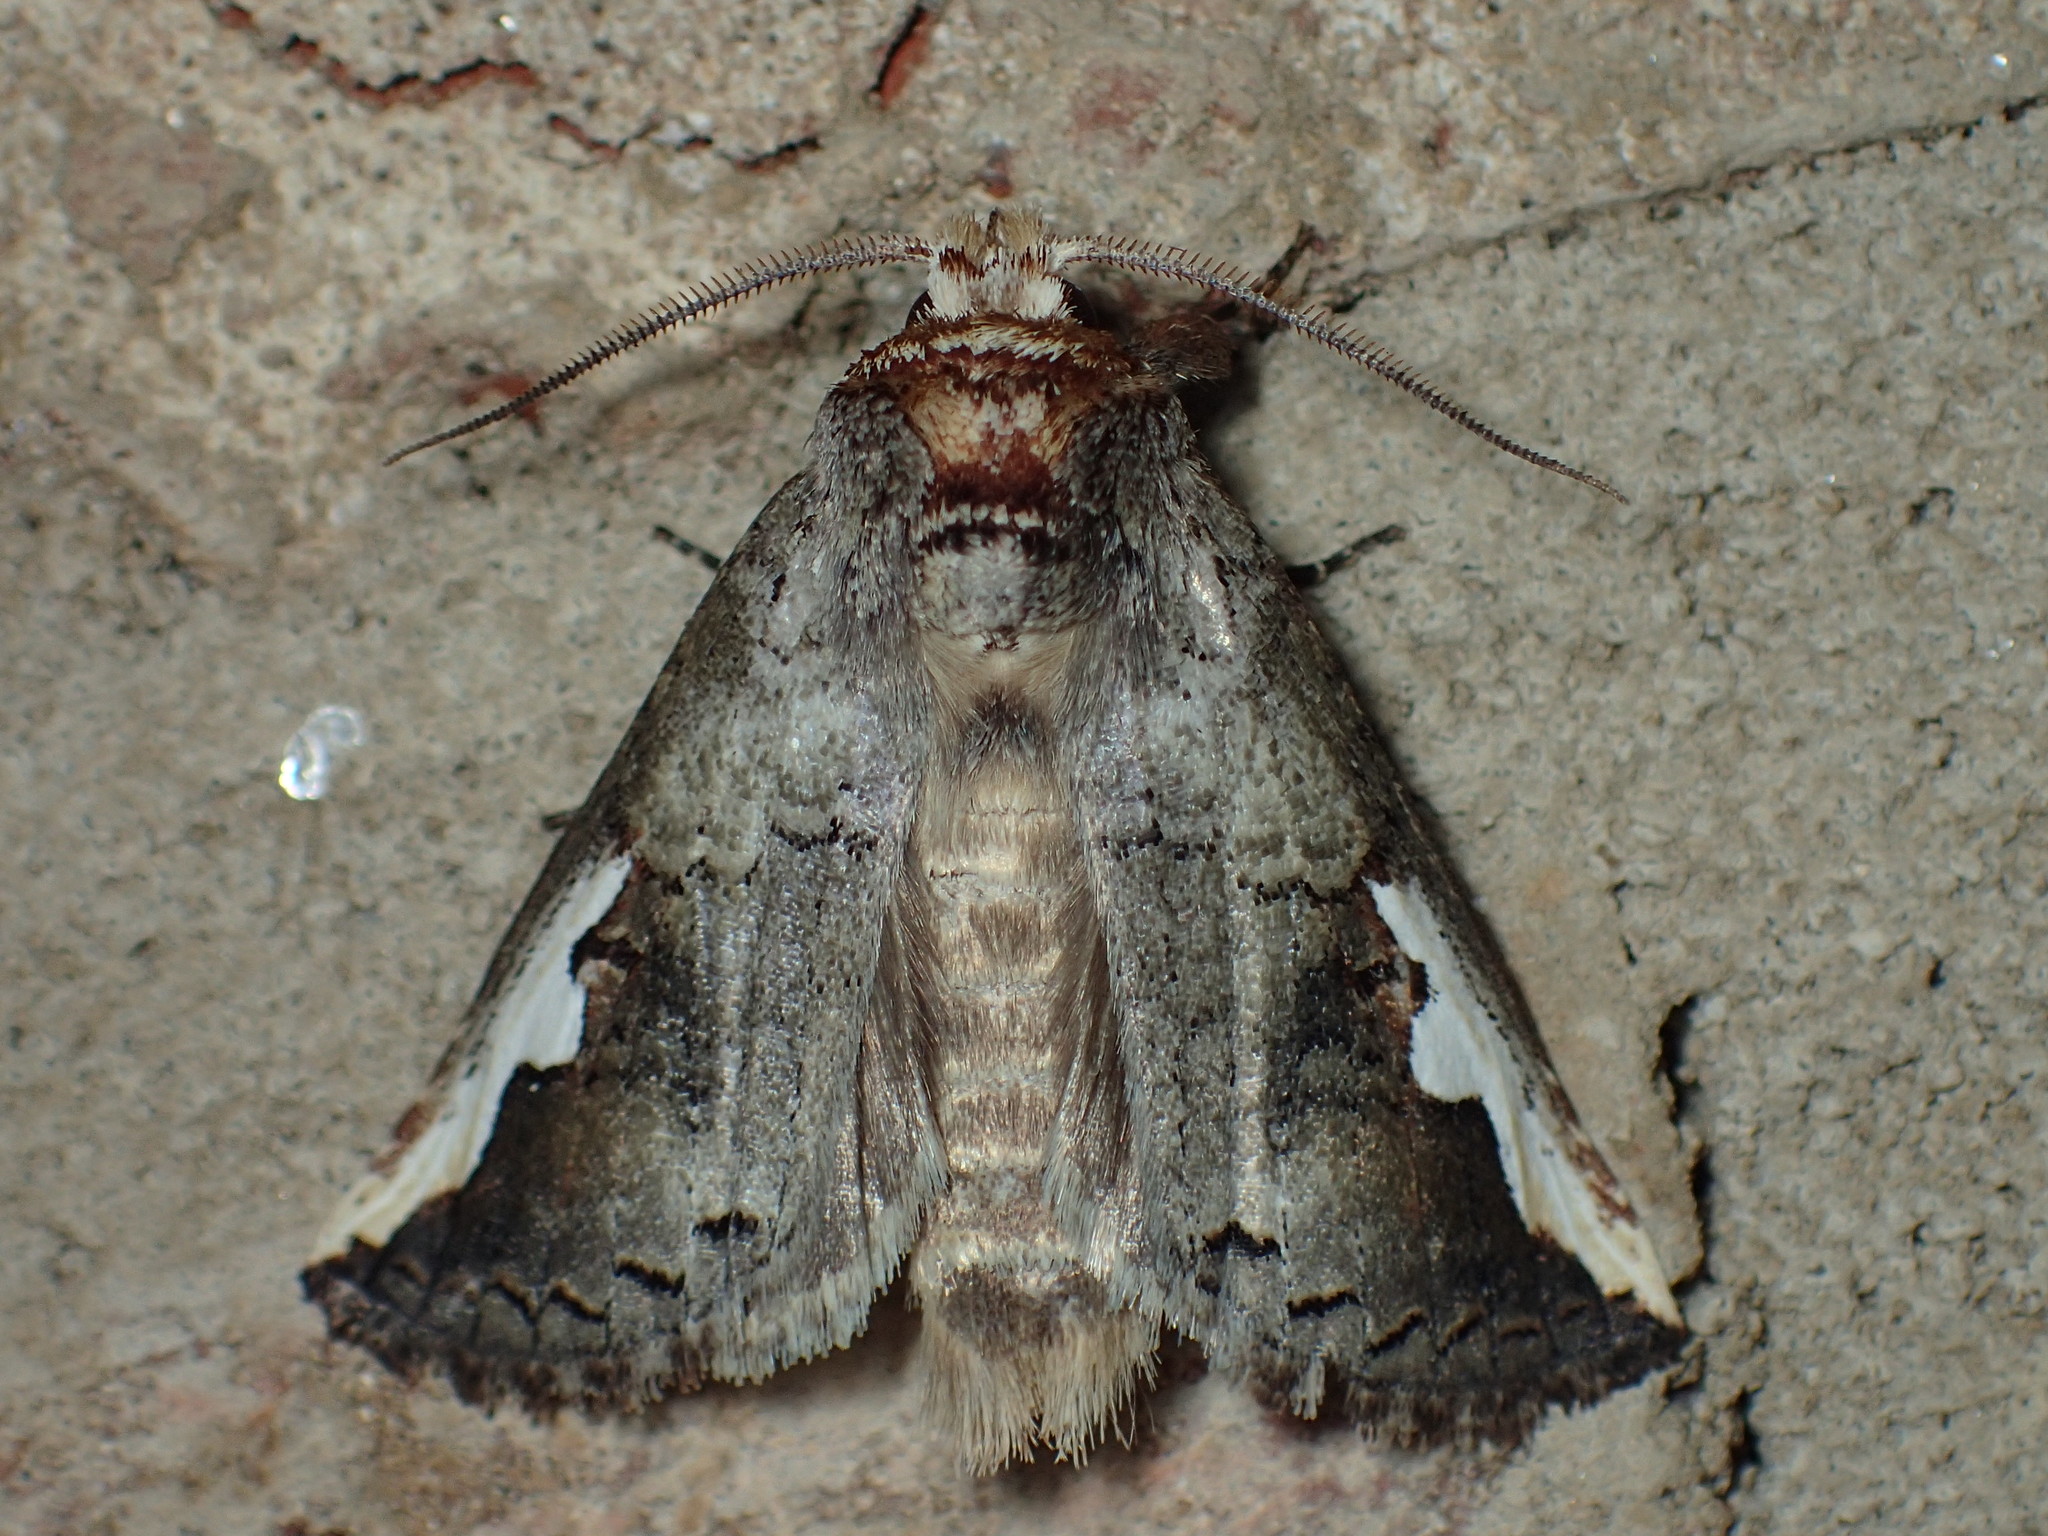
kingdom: Animalia
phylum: Arthropoda
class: Insecta
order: Lepidoptera
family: Notodontidae
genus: Symmerista
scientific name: Symmerista
